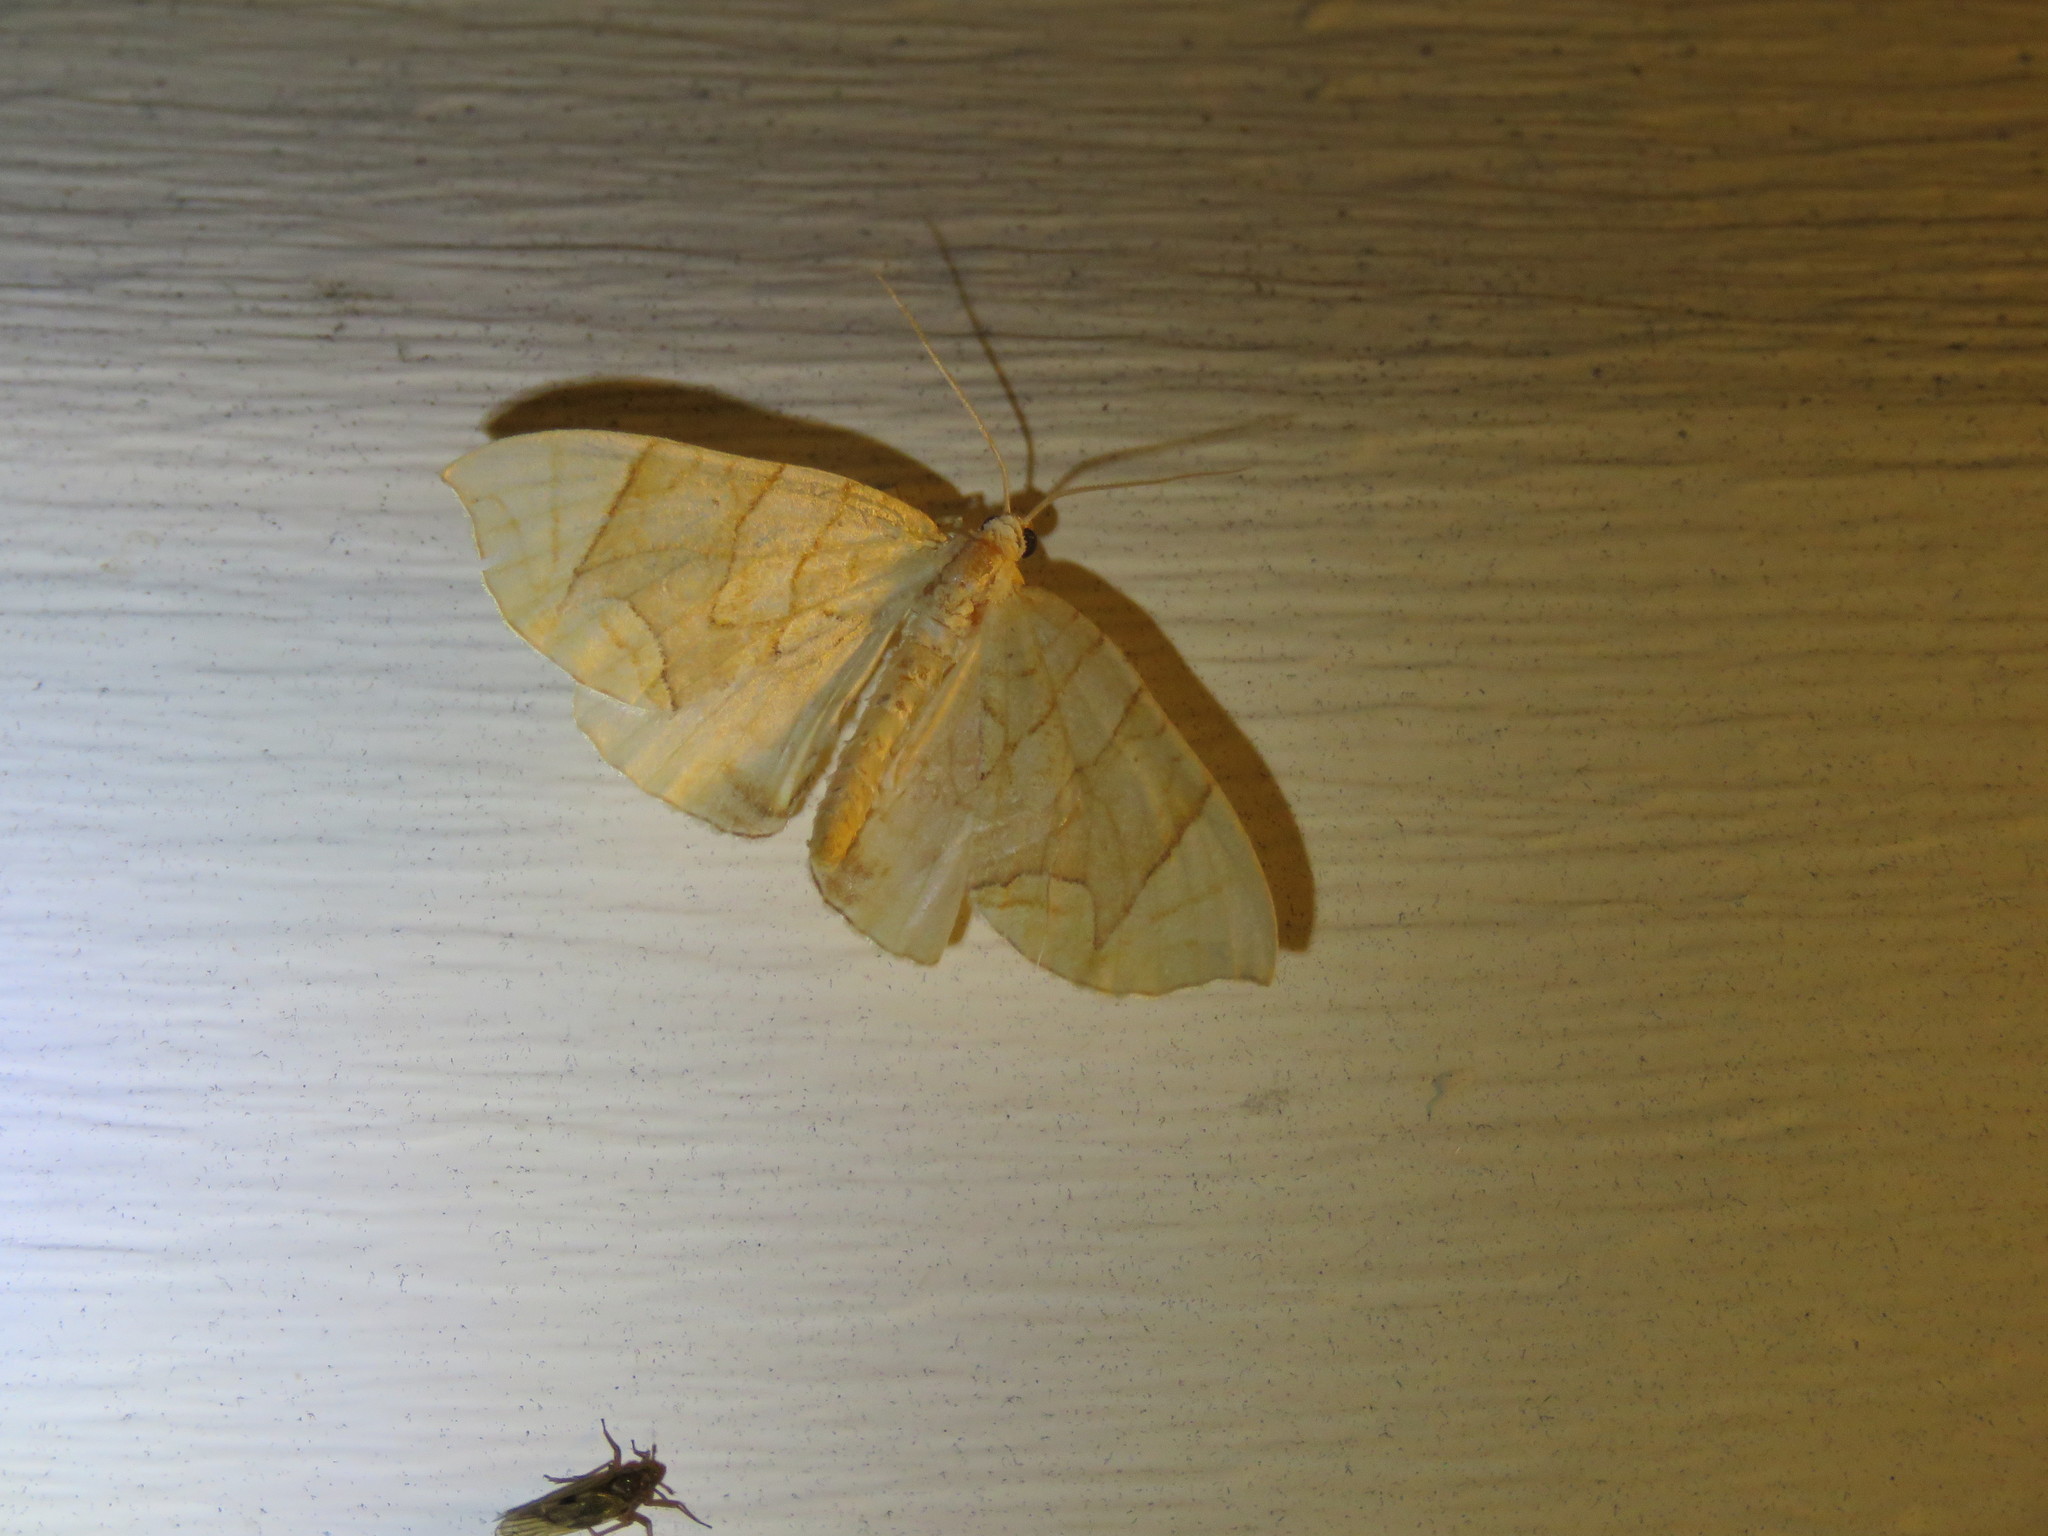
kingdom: Animalia
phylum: Arthropoda
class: Insecta
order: Lepidoptera
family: Geometridae
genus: Eulithis
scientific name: Eulithis
